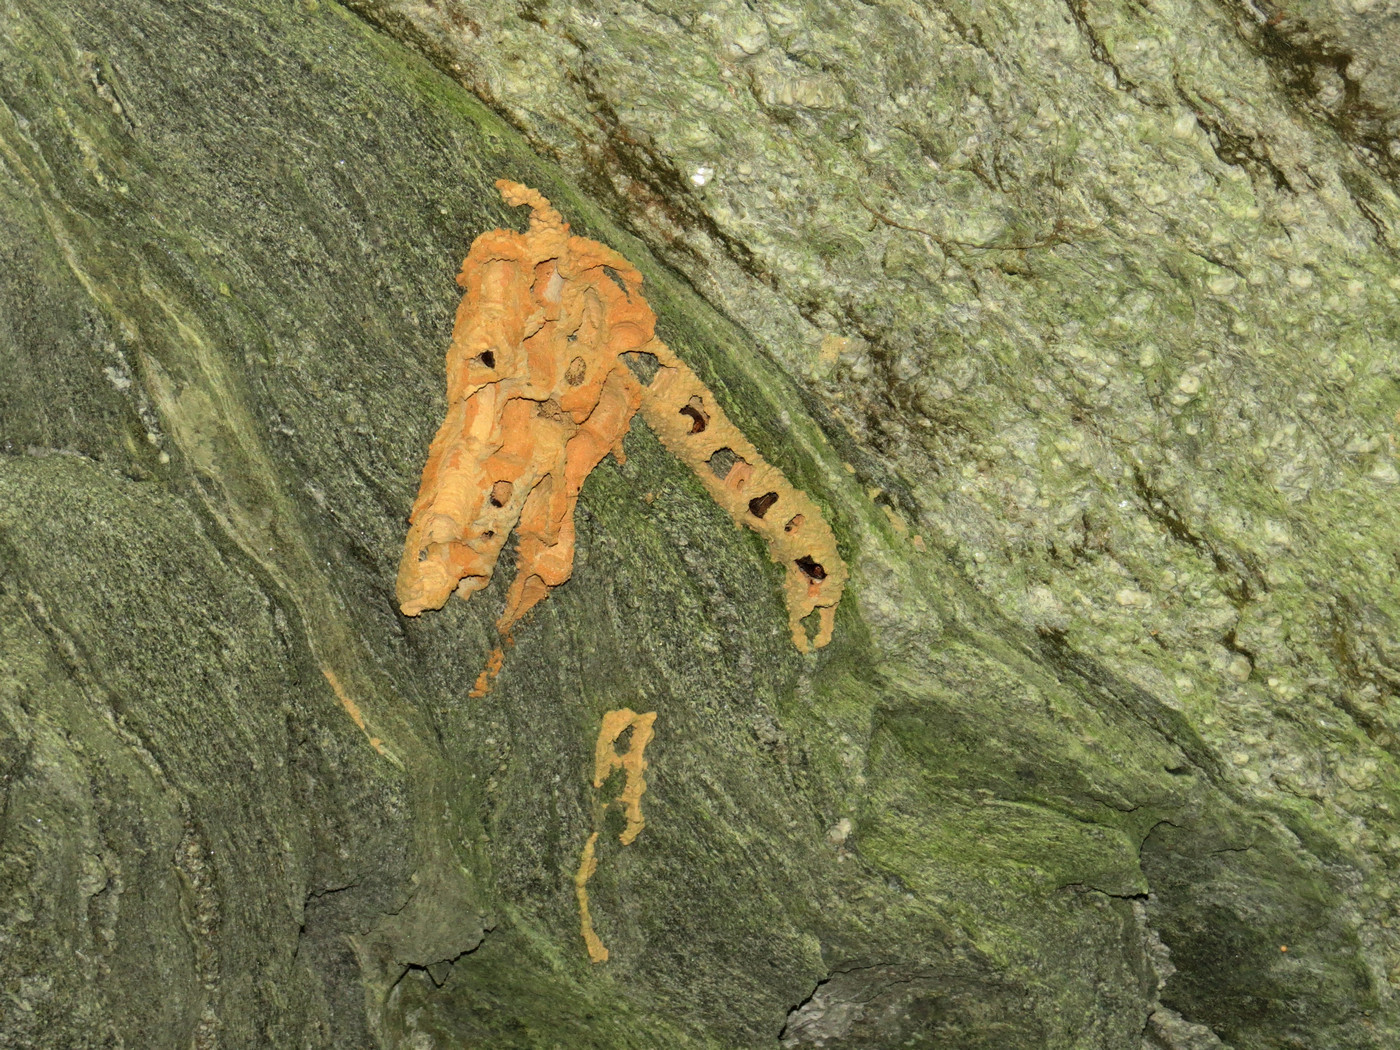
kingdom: Animalia
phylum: Arthropoda
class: Insecta
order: Hymenoptera
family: Crabronidae
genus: Trypoxylon
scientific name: Trypoxylon politum
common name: Organ-pipe mud-dauber wasp
